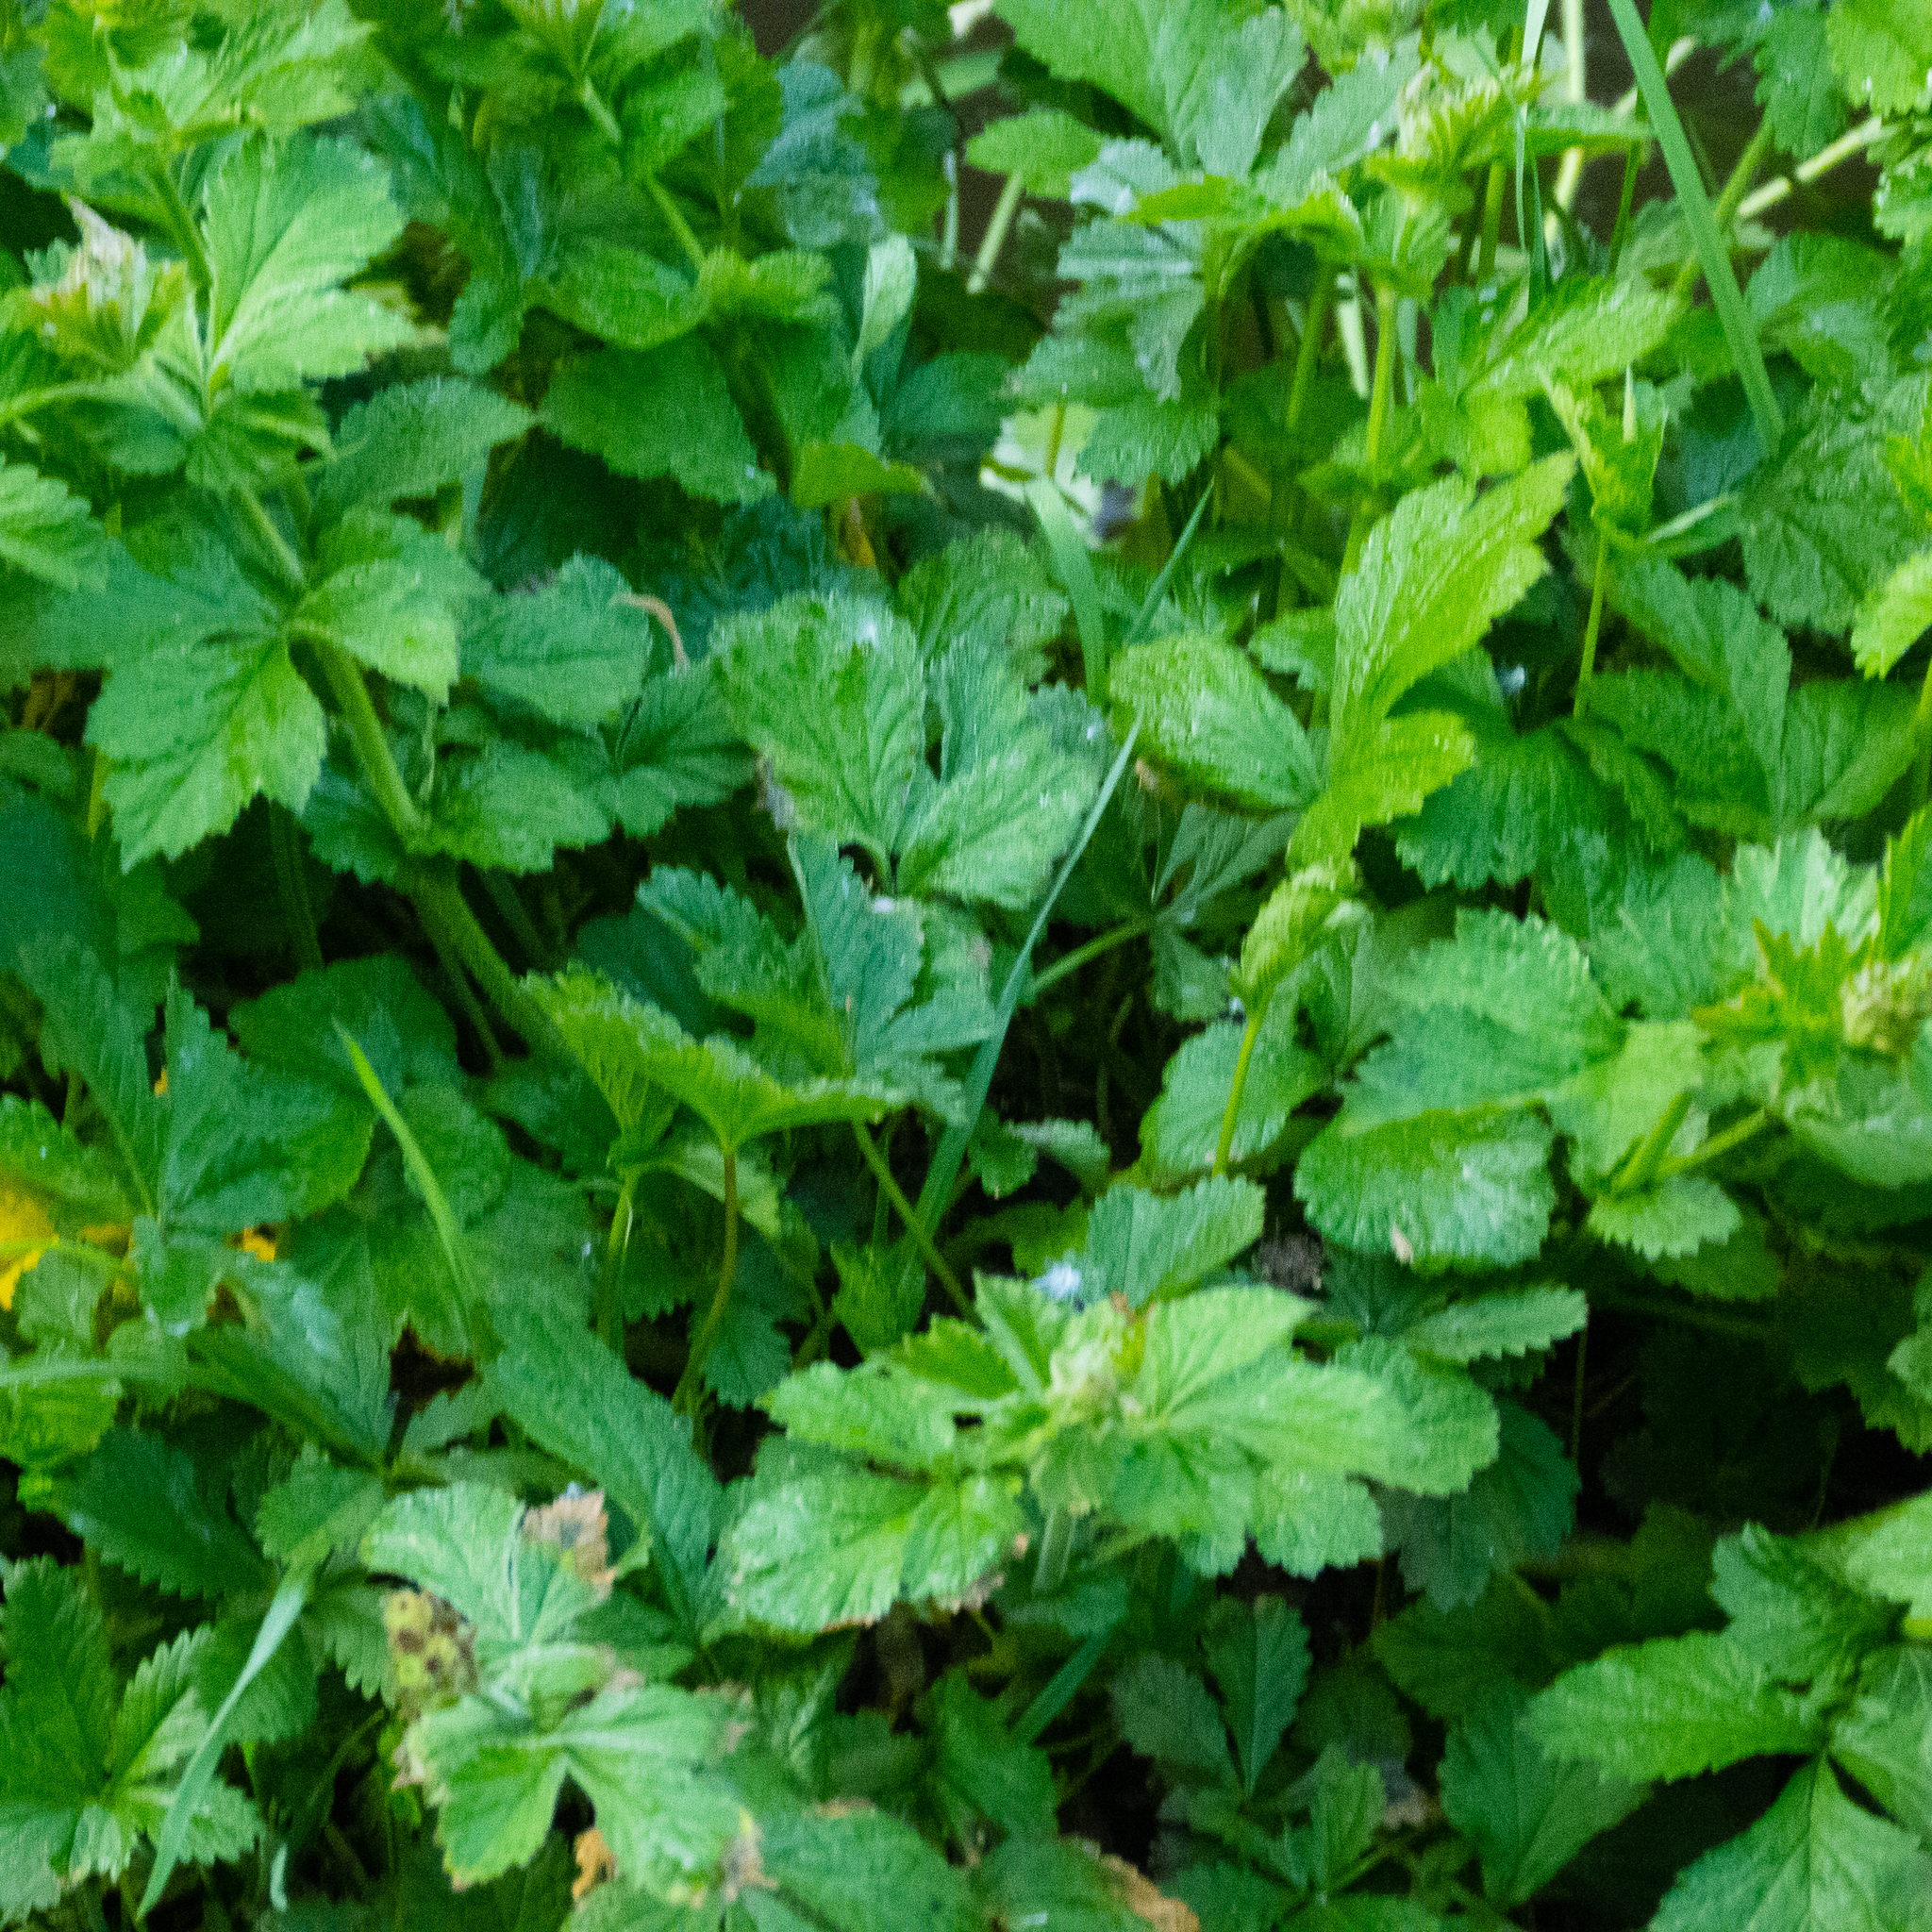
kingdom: Plantae
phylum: Tracheophyta
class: Magnoliopsida
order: Rosales
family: Rosaceae
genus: Geum
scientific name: Geum urbanum
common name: Wood avens
